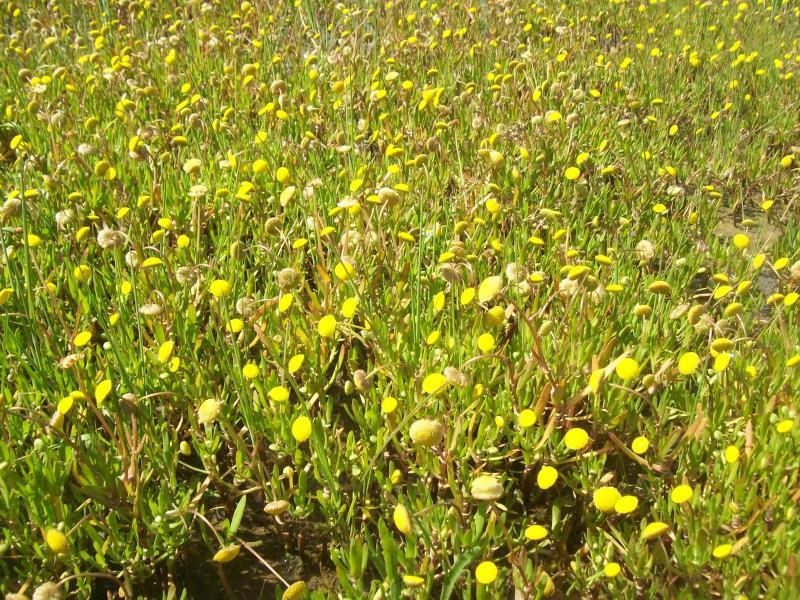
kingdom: Plantae
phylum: Tracheophyta
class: Magnoliopsida
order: Asterales
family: Asteraceae
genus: Cotula
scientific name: Cotula coronopifolia
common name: Buttonweed
